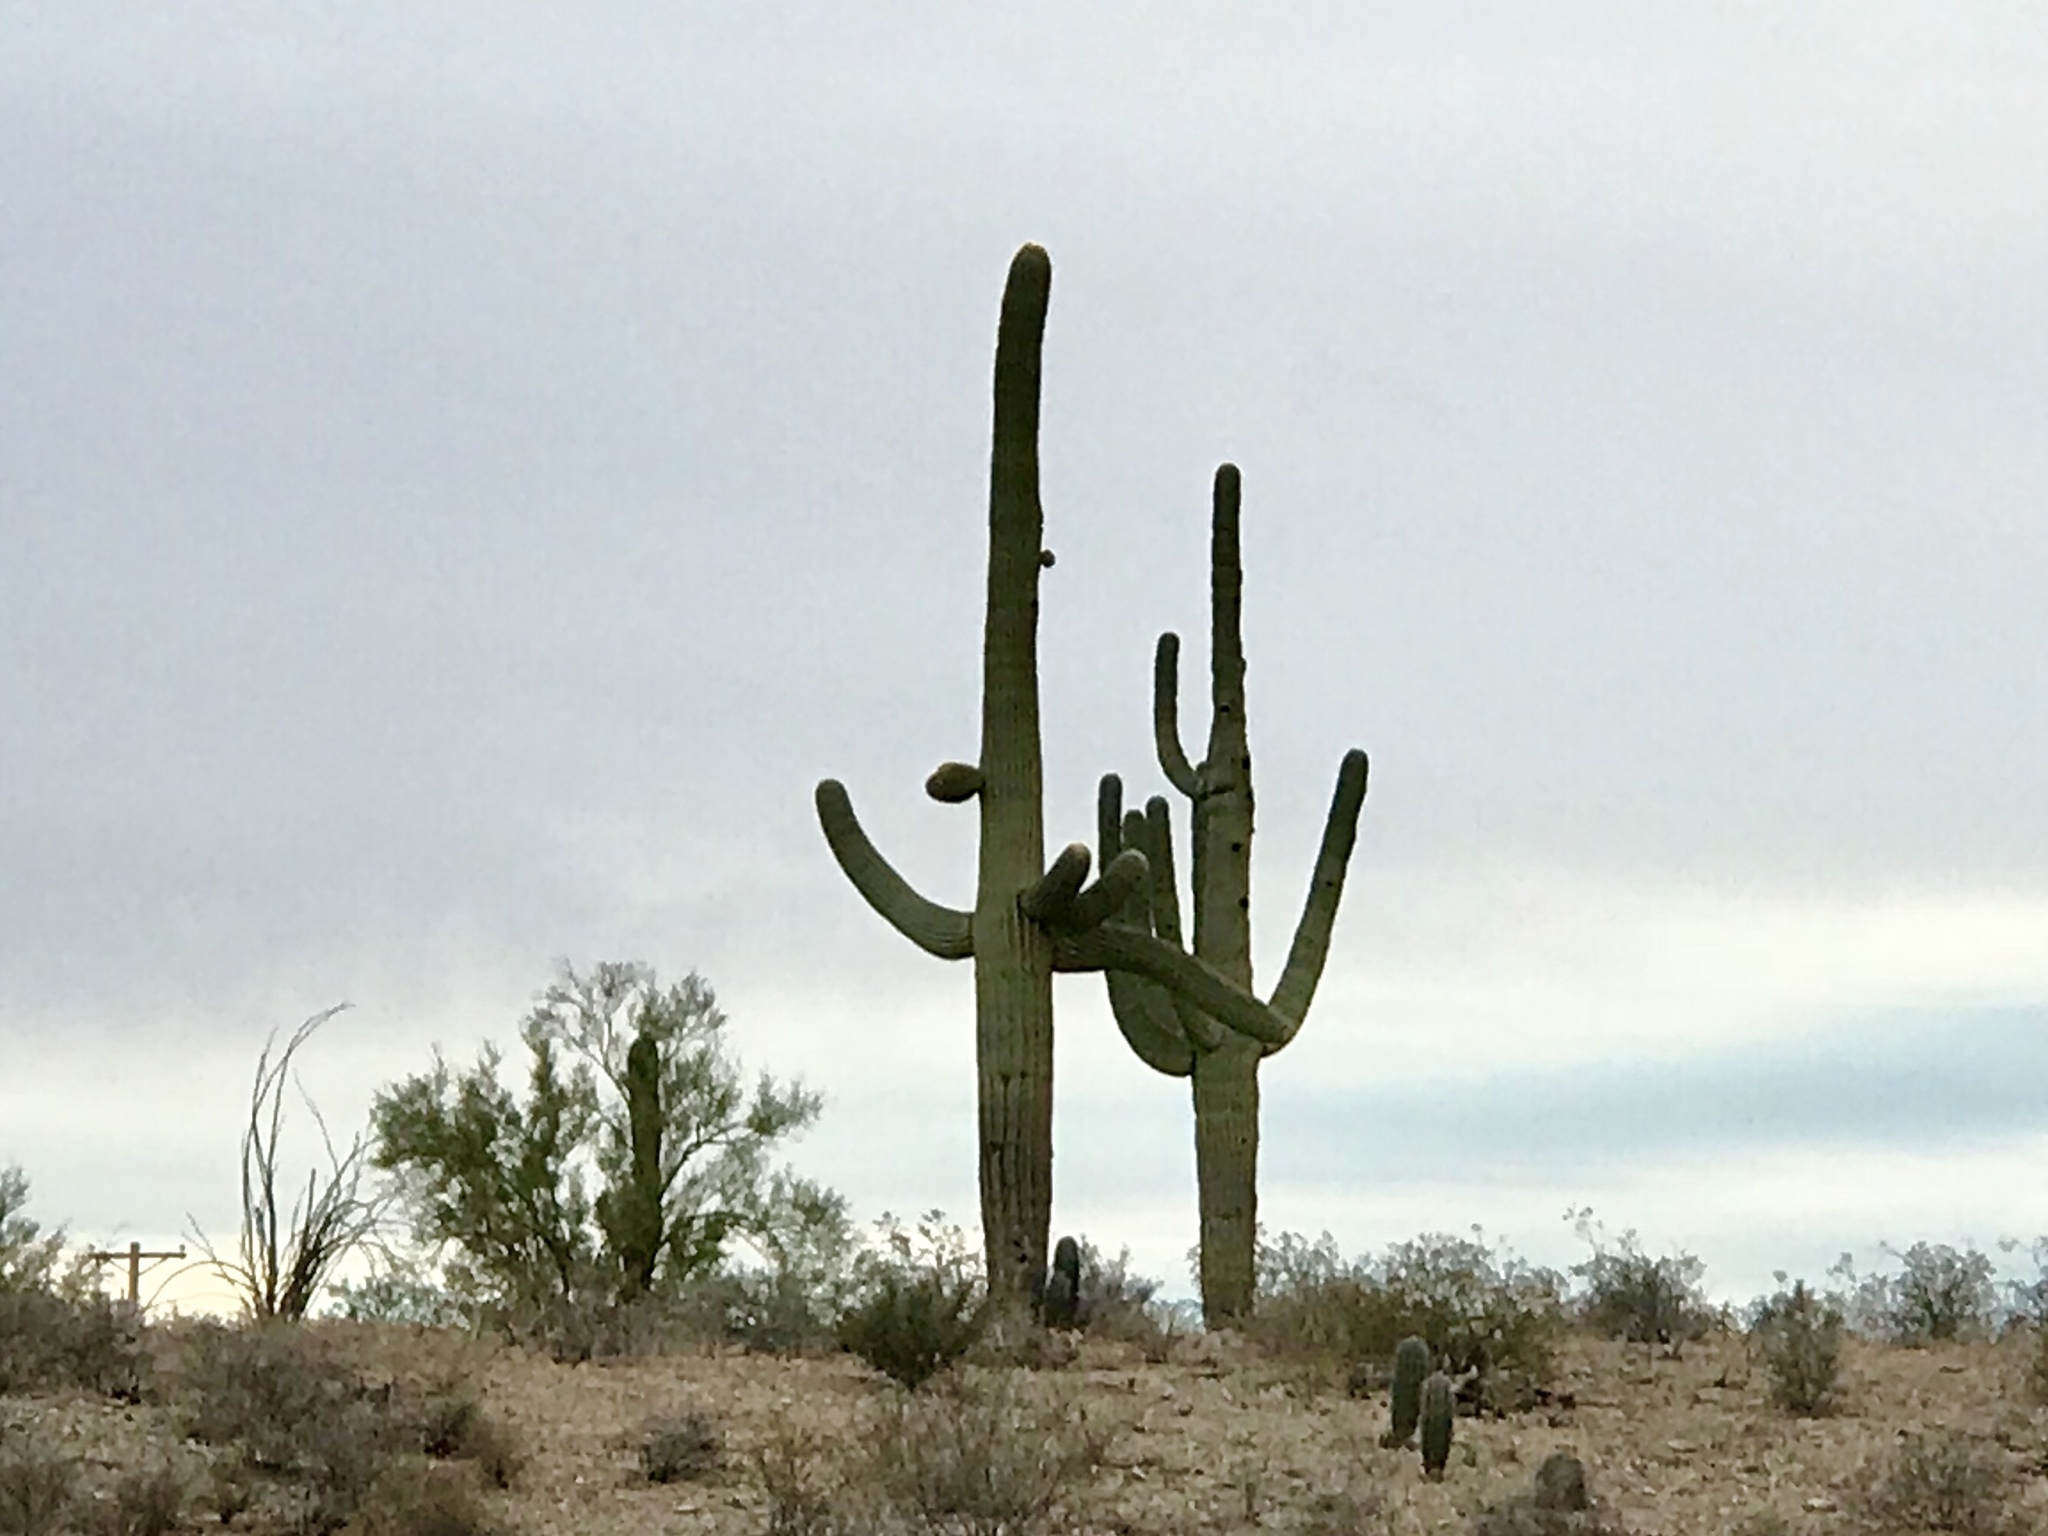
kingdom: Plantae
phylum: Tracheophyta
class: Magnoliopsida
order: Caryophyllales
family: Cactaceae
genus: Carnegiea
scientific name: Carnegiea gigantea
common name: Saguaro
